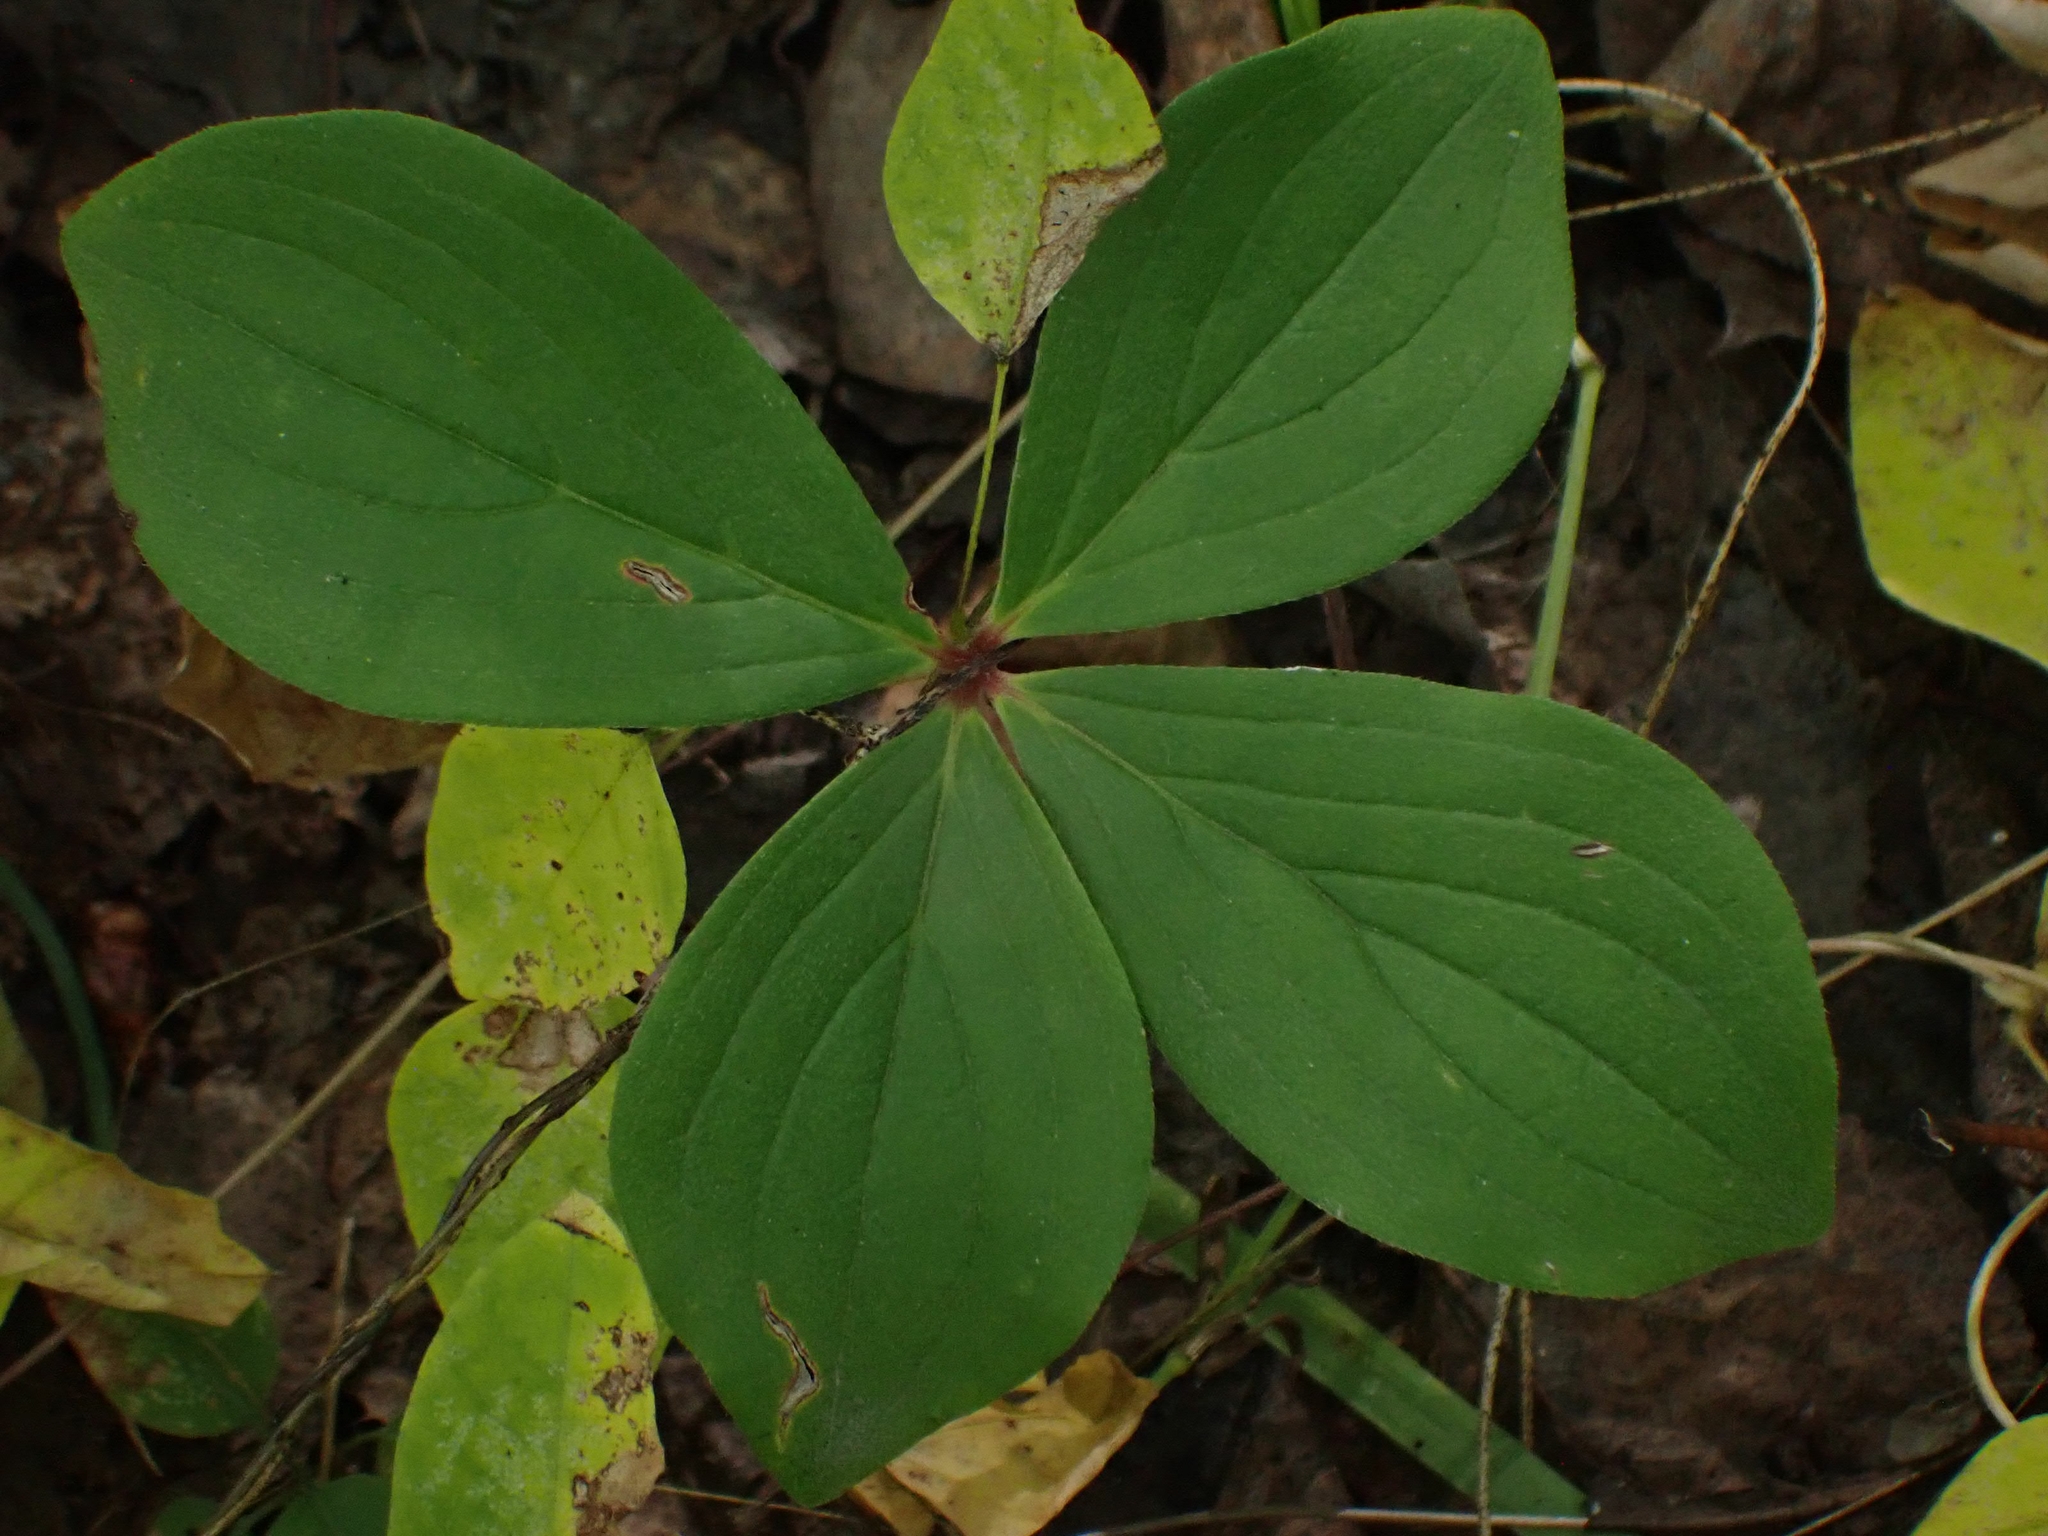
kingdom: Plantae
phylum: Tracheophyta
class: Magnoliopsida
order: Cornales
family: Cornaceae
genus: Cornus
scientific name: Cornus canadensis
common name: Creeping dogwood
